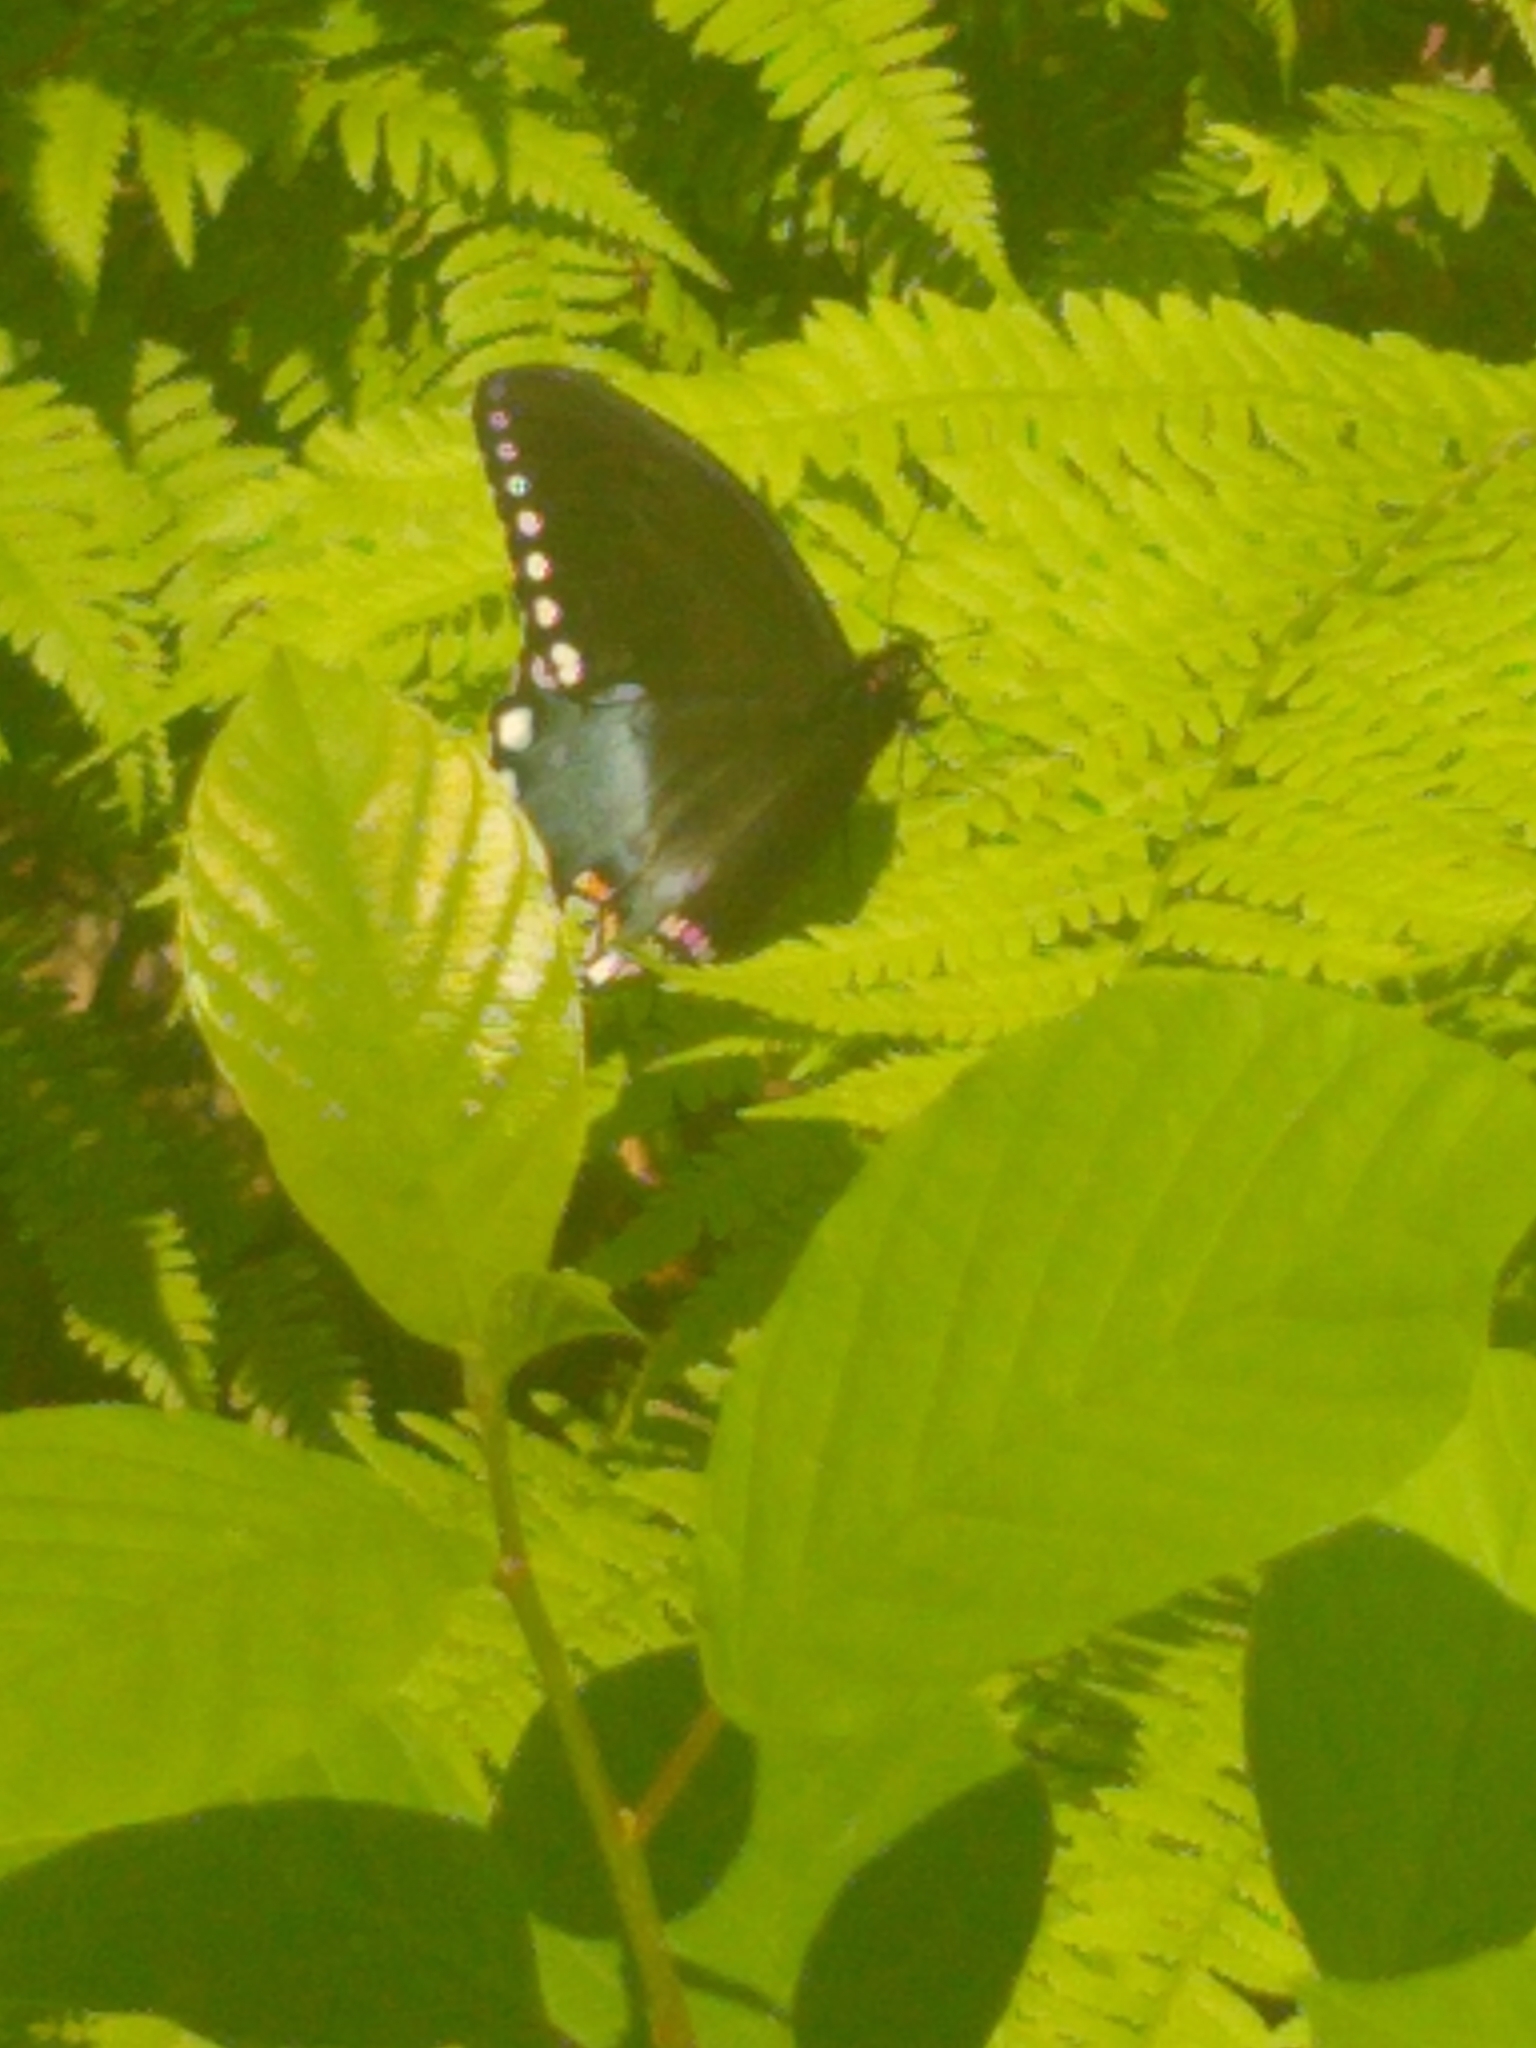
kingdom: Animalia
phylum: Arthropoda
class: Insecta
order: Lepidoptera
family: Papilionidae
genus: Papilio
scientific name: Papilio troilus
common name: Spicebush swallowtail
